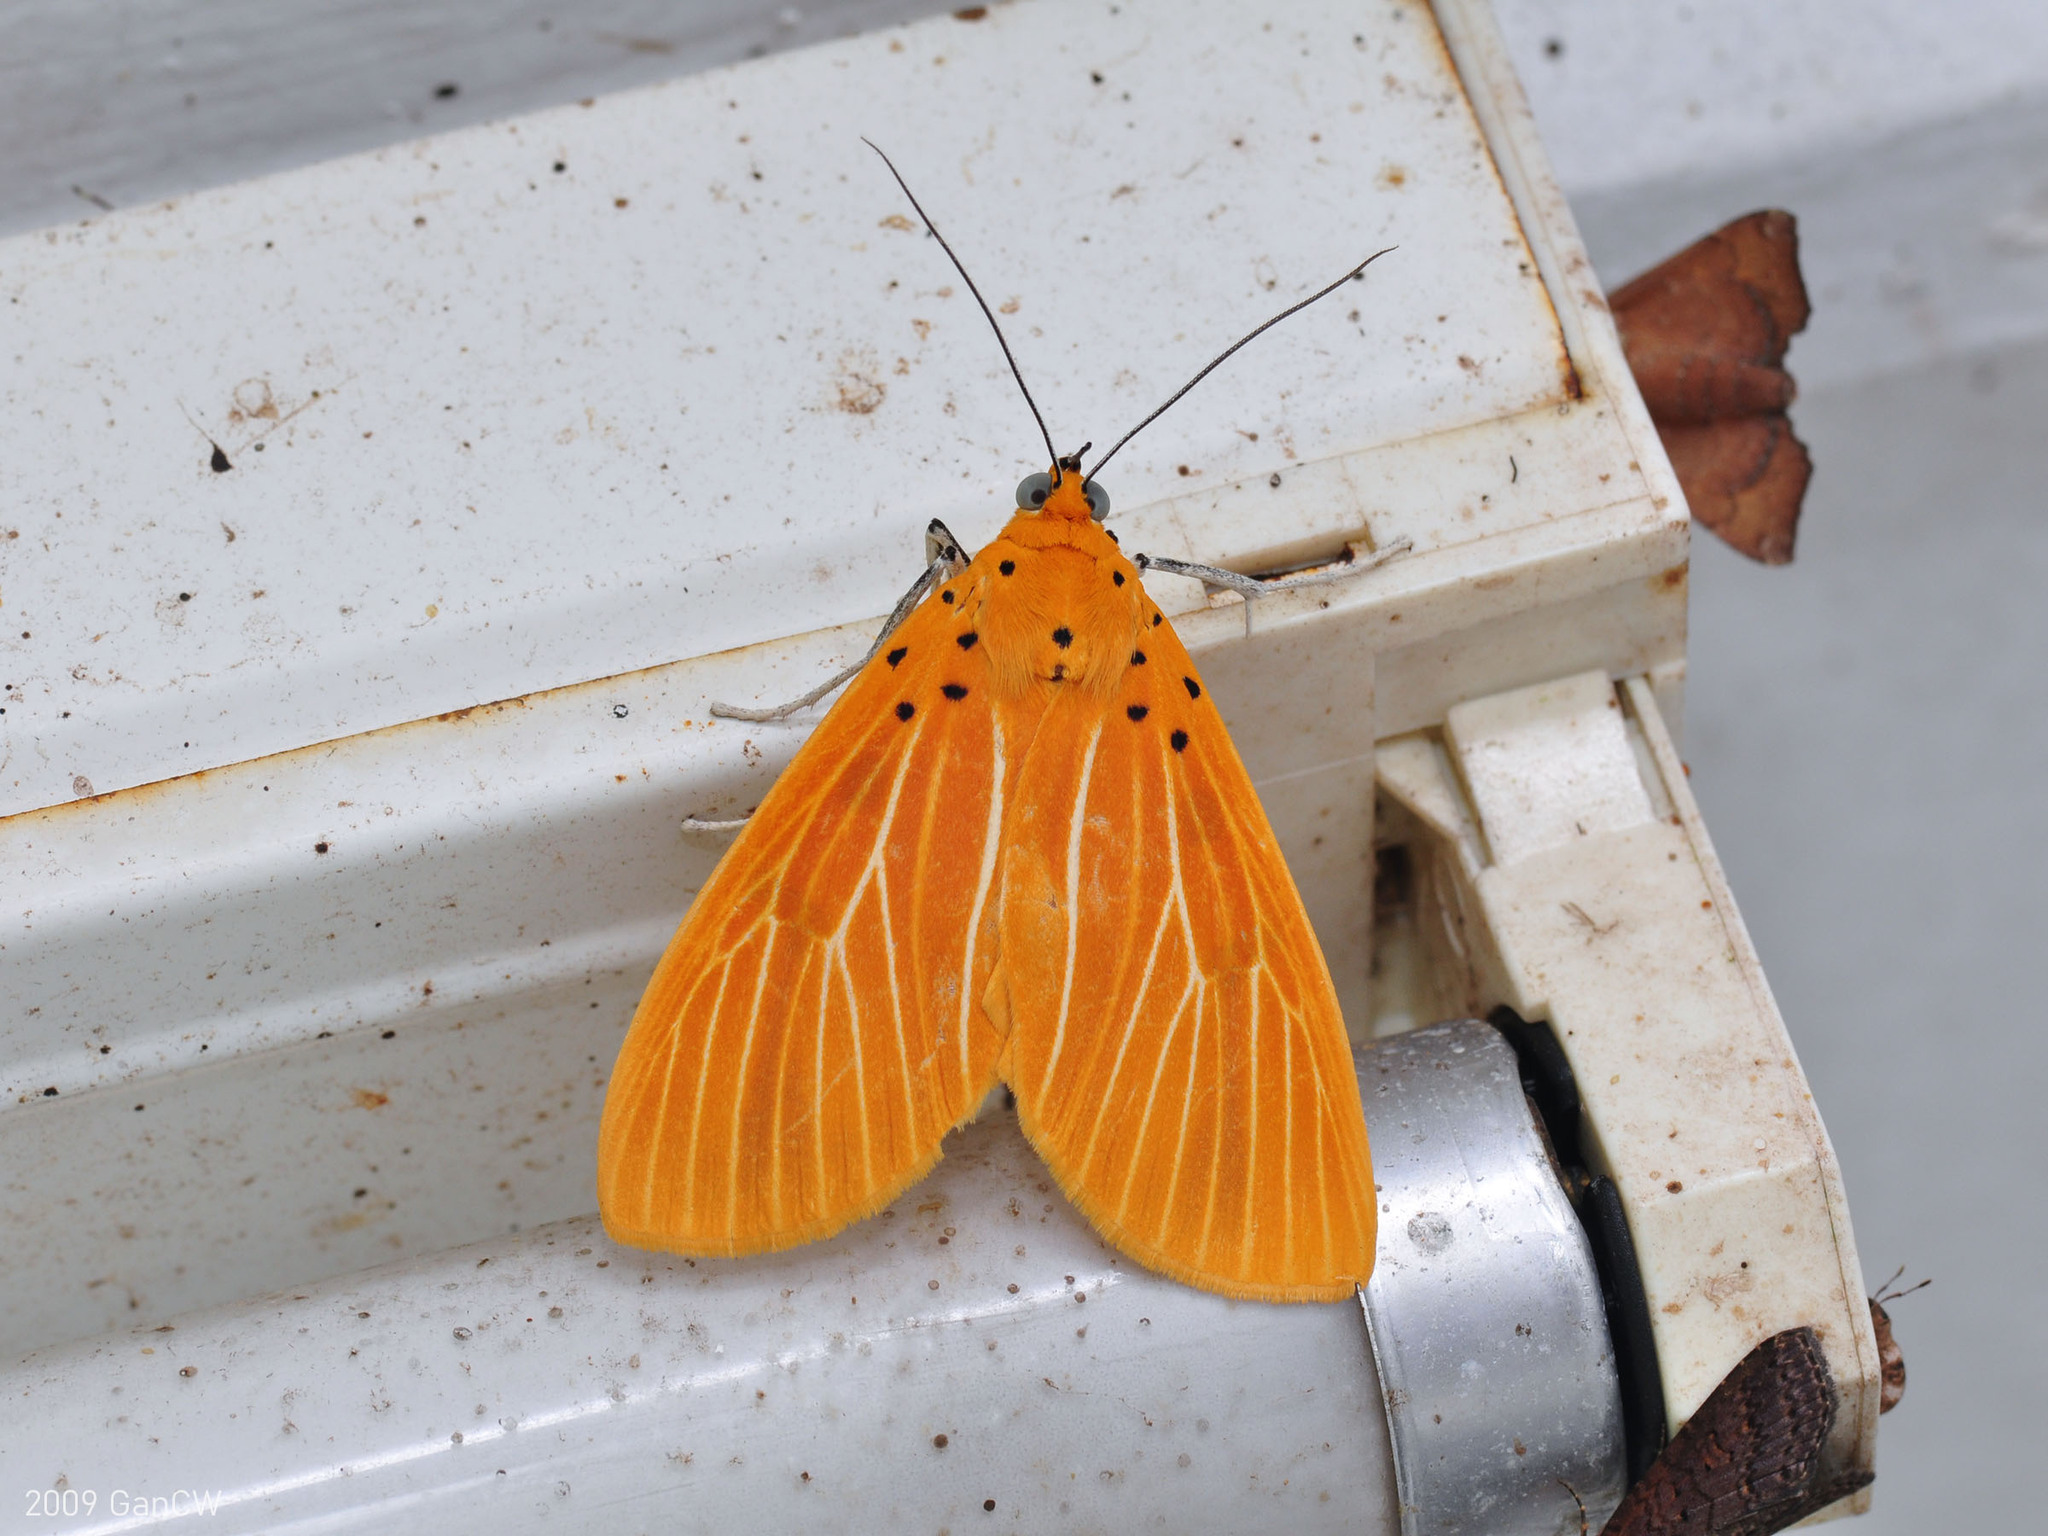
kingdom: Animalia
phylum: Arthropoda
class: Insecta
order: Lepidoptera
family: Erebidae
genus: Asota
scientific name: Asota egens
